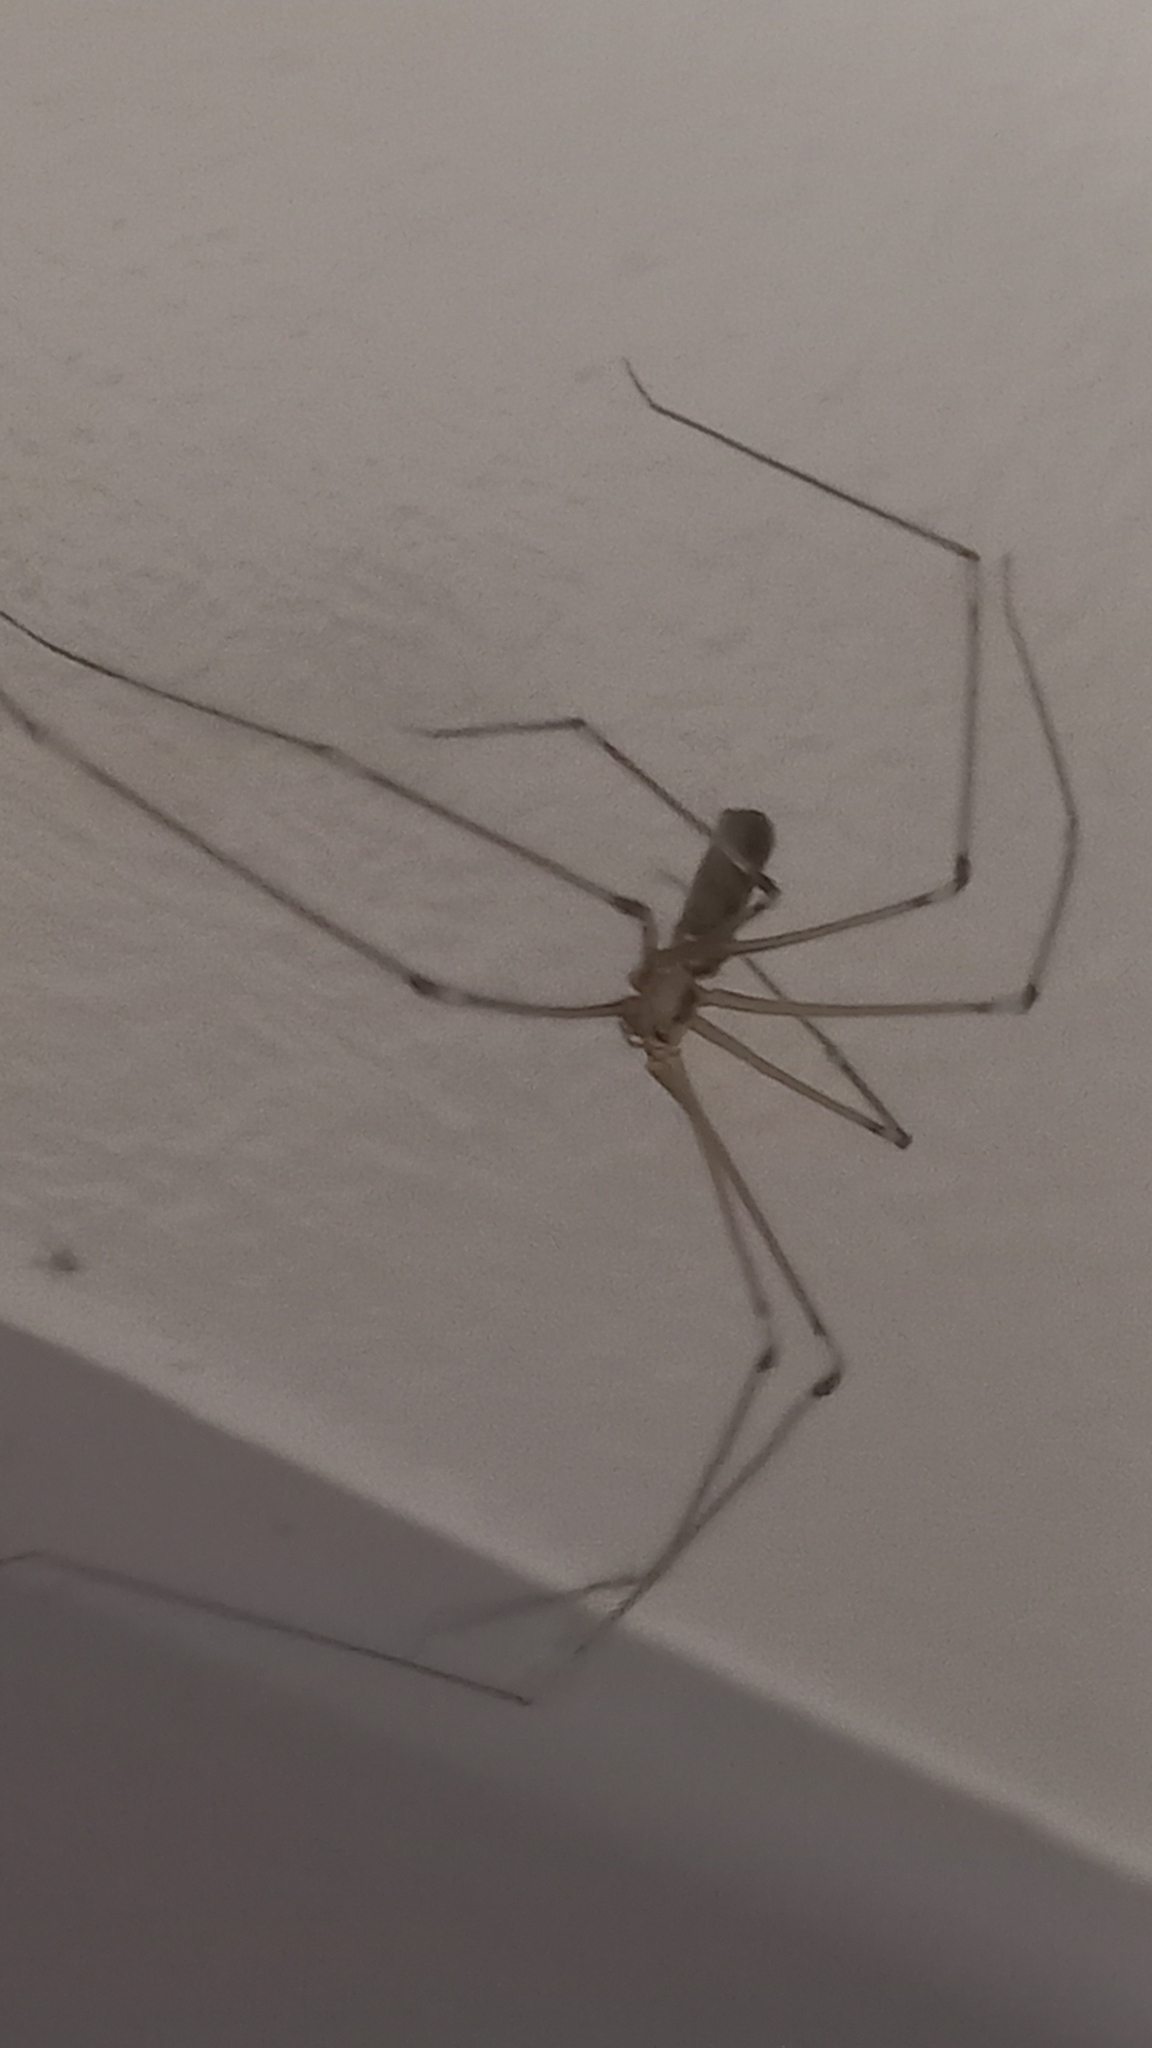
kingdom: Animalia
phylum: Arthropoda
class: Arachnida
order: Araneae
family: Pholcidae
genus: Pholcus
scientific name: Pholcus phalangioides
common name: Longbodied cellar spider
